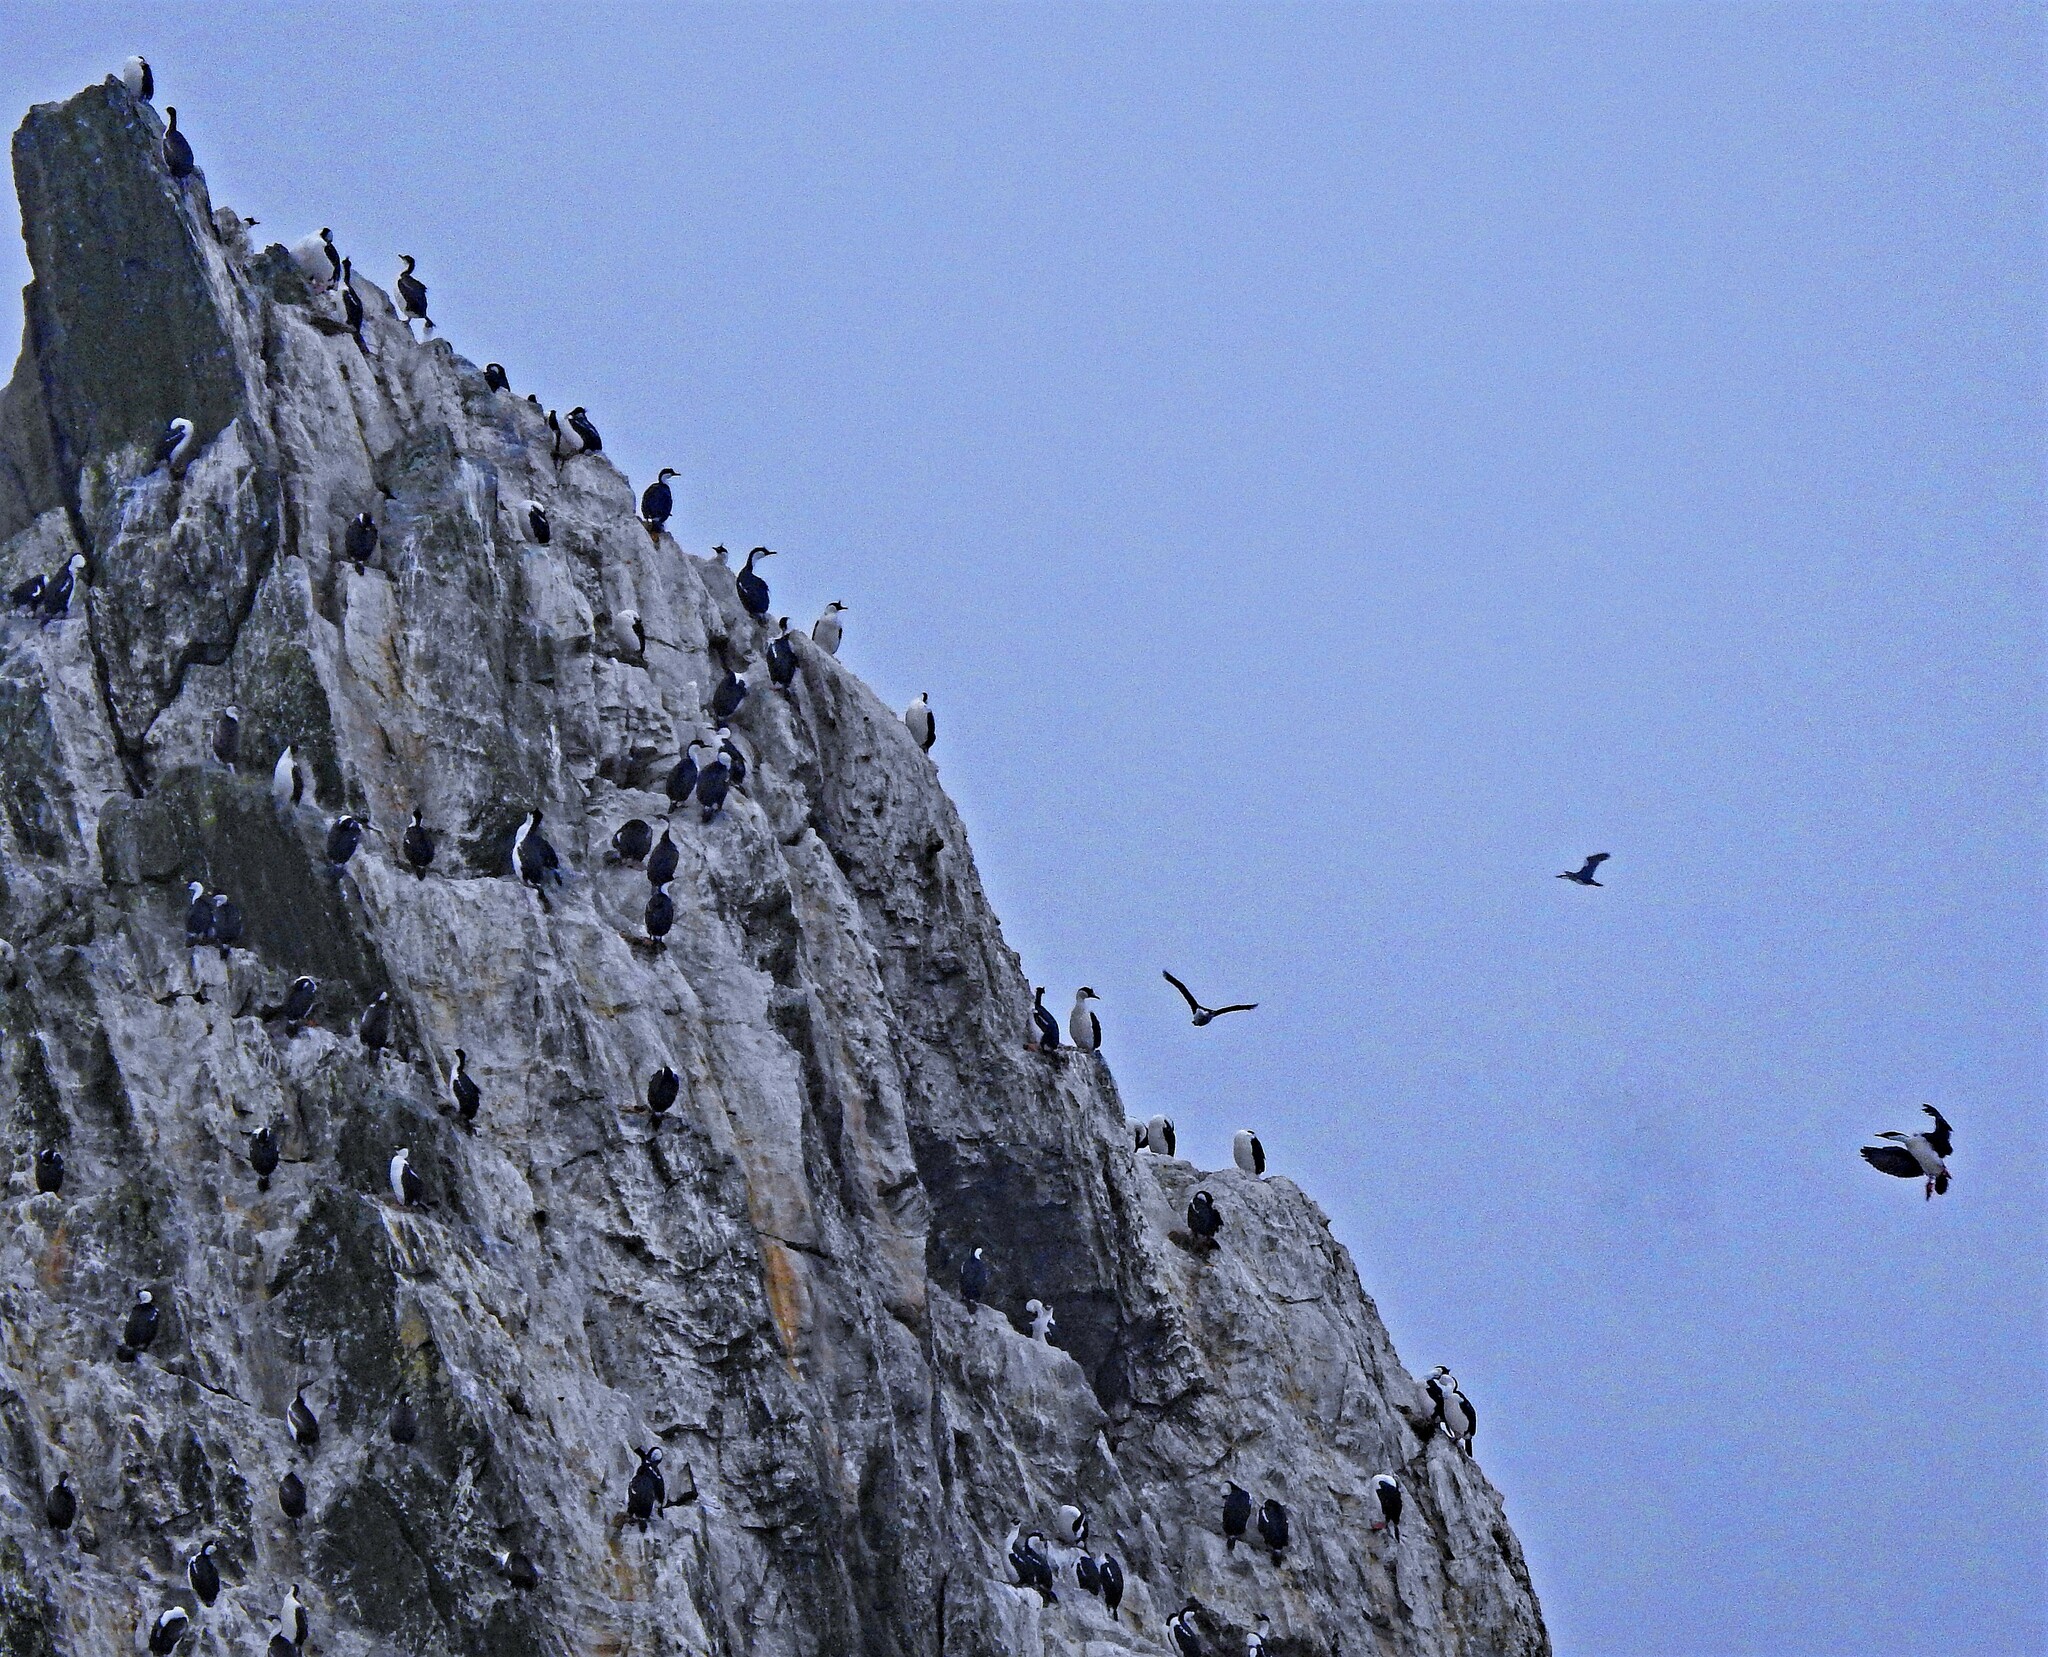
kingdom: Animalia
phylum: Chordata
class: Aves
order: Suliformes
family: Phalacrocoracidae
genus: Leucocarbo
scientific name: Leucocarbo atriceps
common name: Imperial shag
